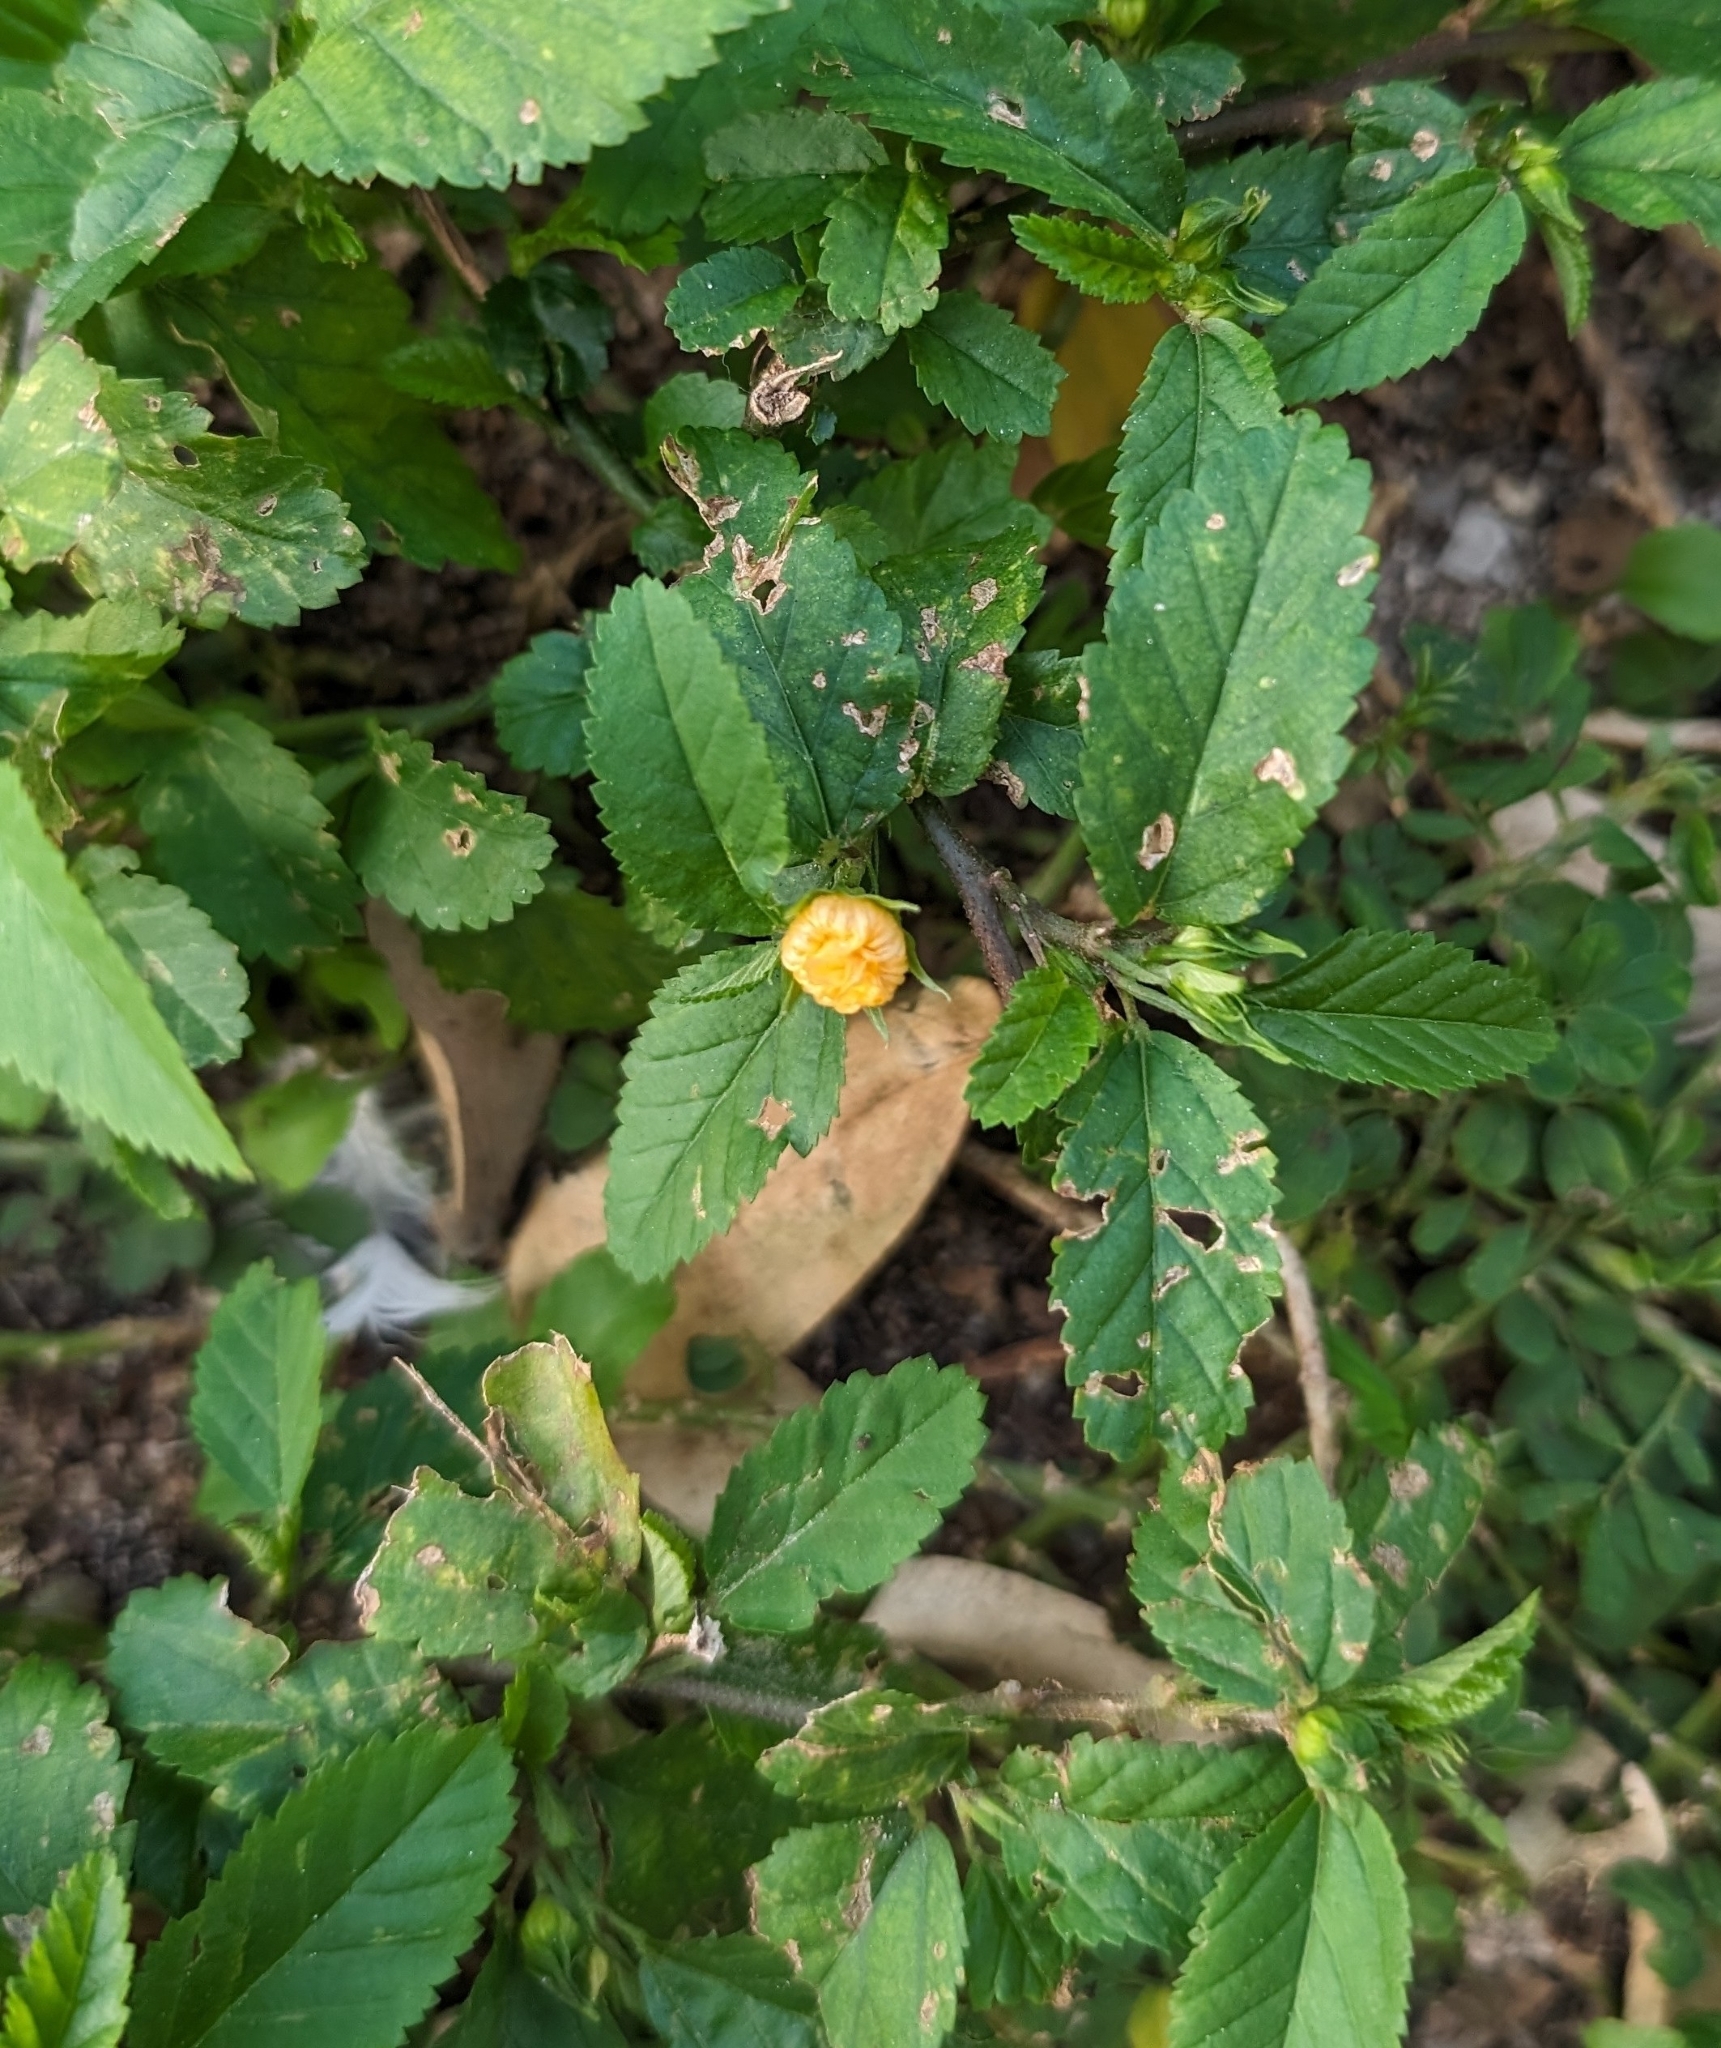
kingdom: Plantae
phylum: Tracheophyta
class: Magnoliopsida
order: Malvales
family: Malvaceae
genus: Sida
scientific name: Sida ulmifolia
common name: Broom weed
